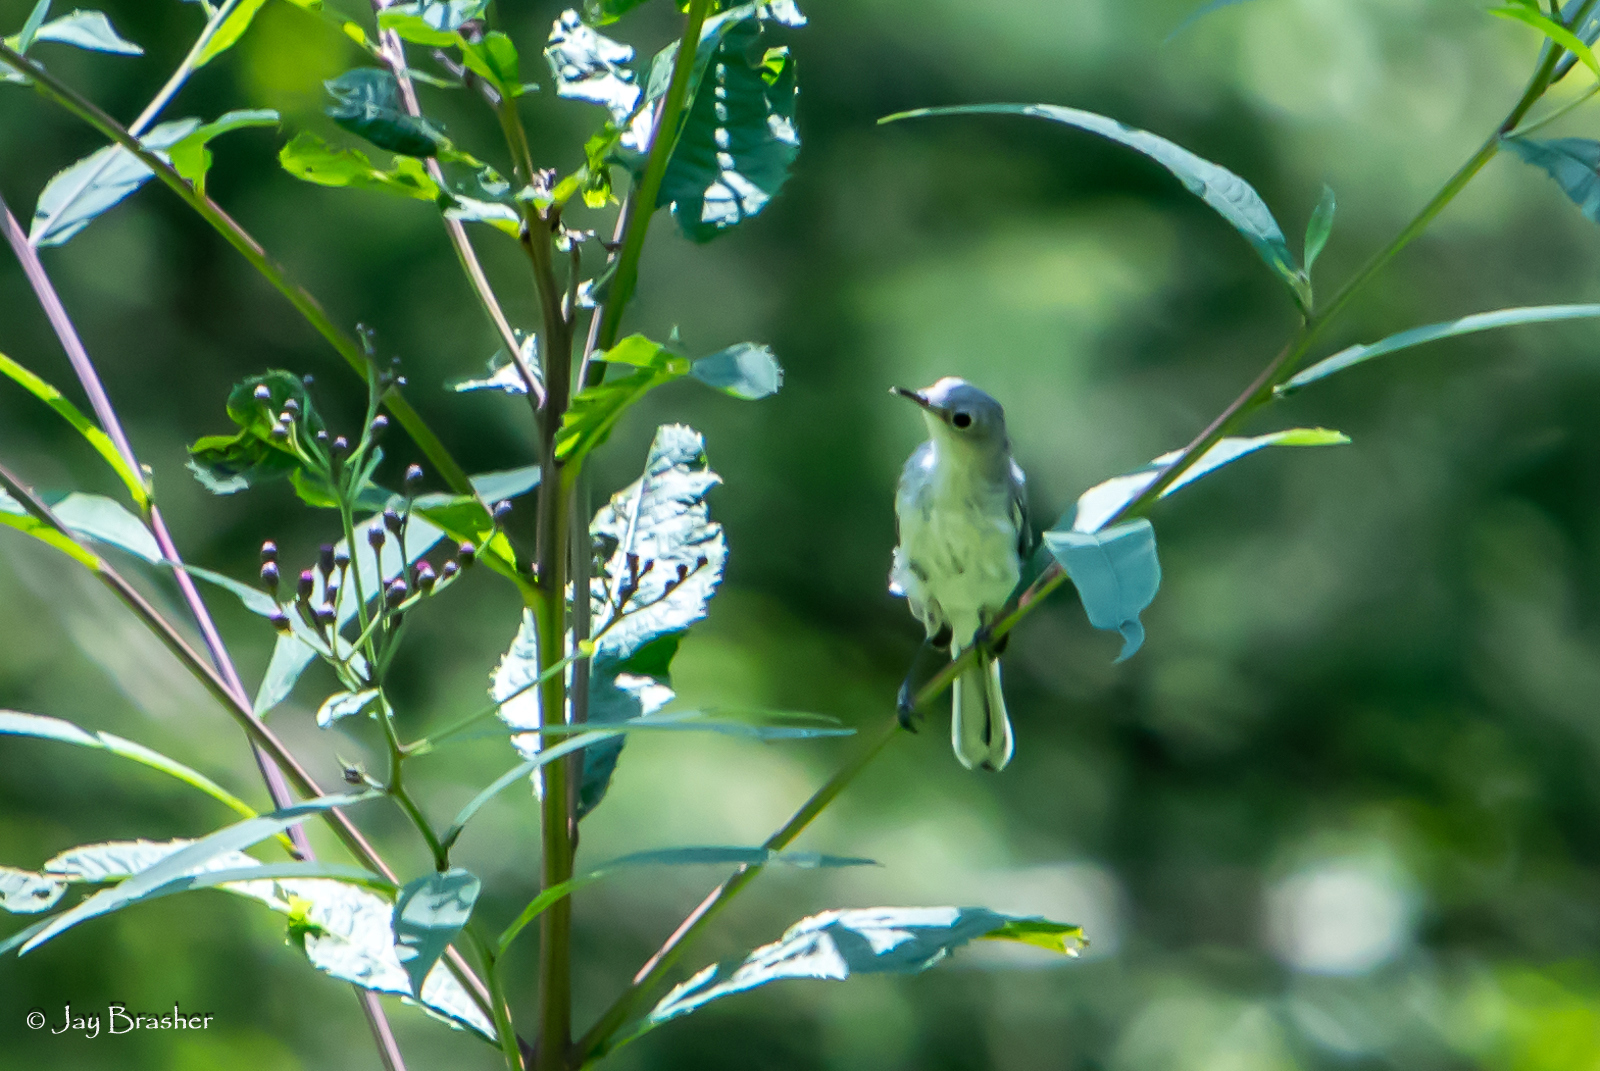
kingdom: Animalia
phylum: Chordata
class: Aves
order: Passeriformes
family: Polioptilidae
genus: Polioptila
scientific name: Polioptila caerulea
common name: Blue-gray gnatcatcher
